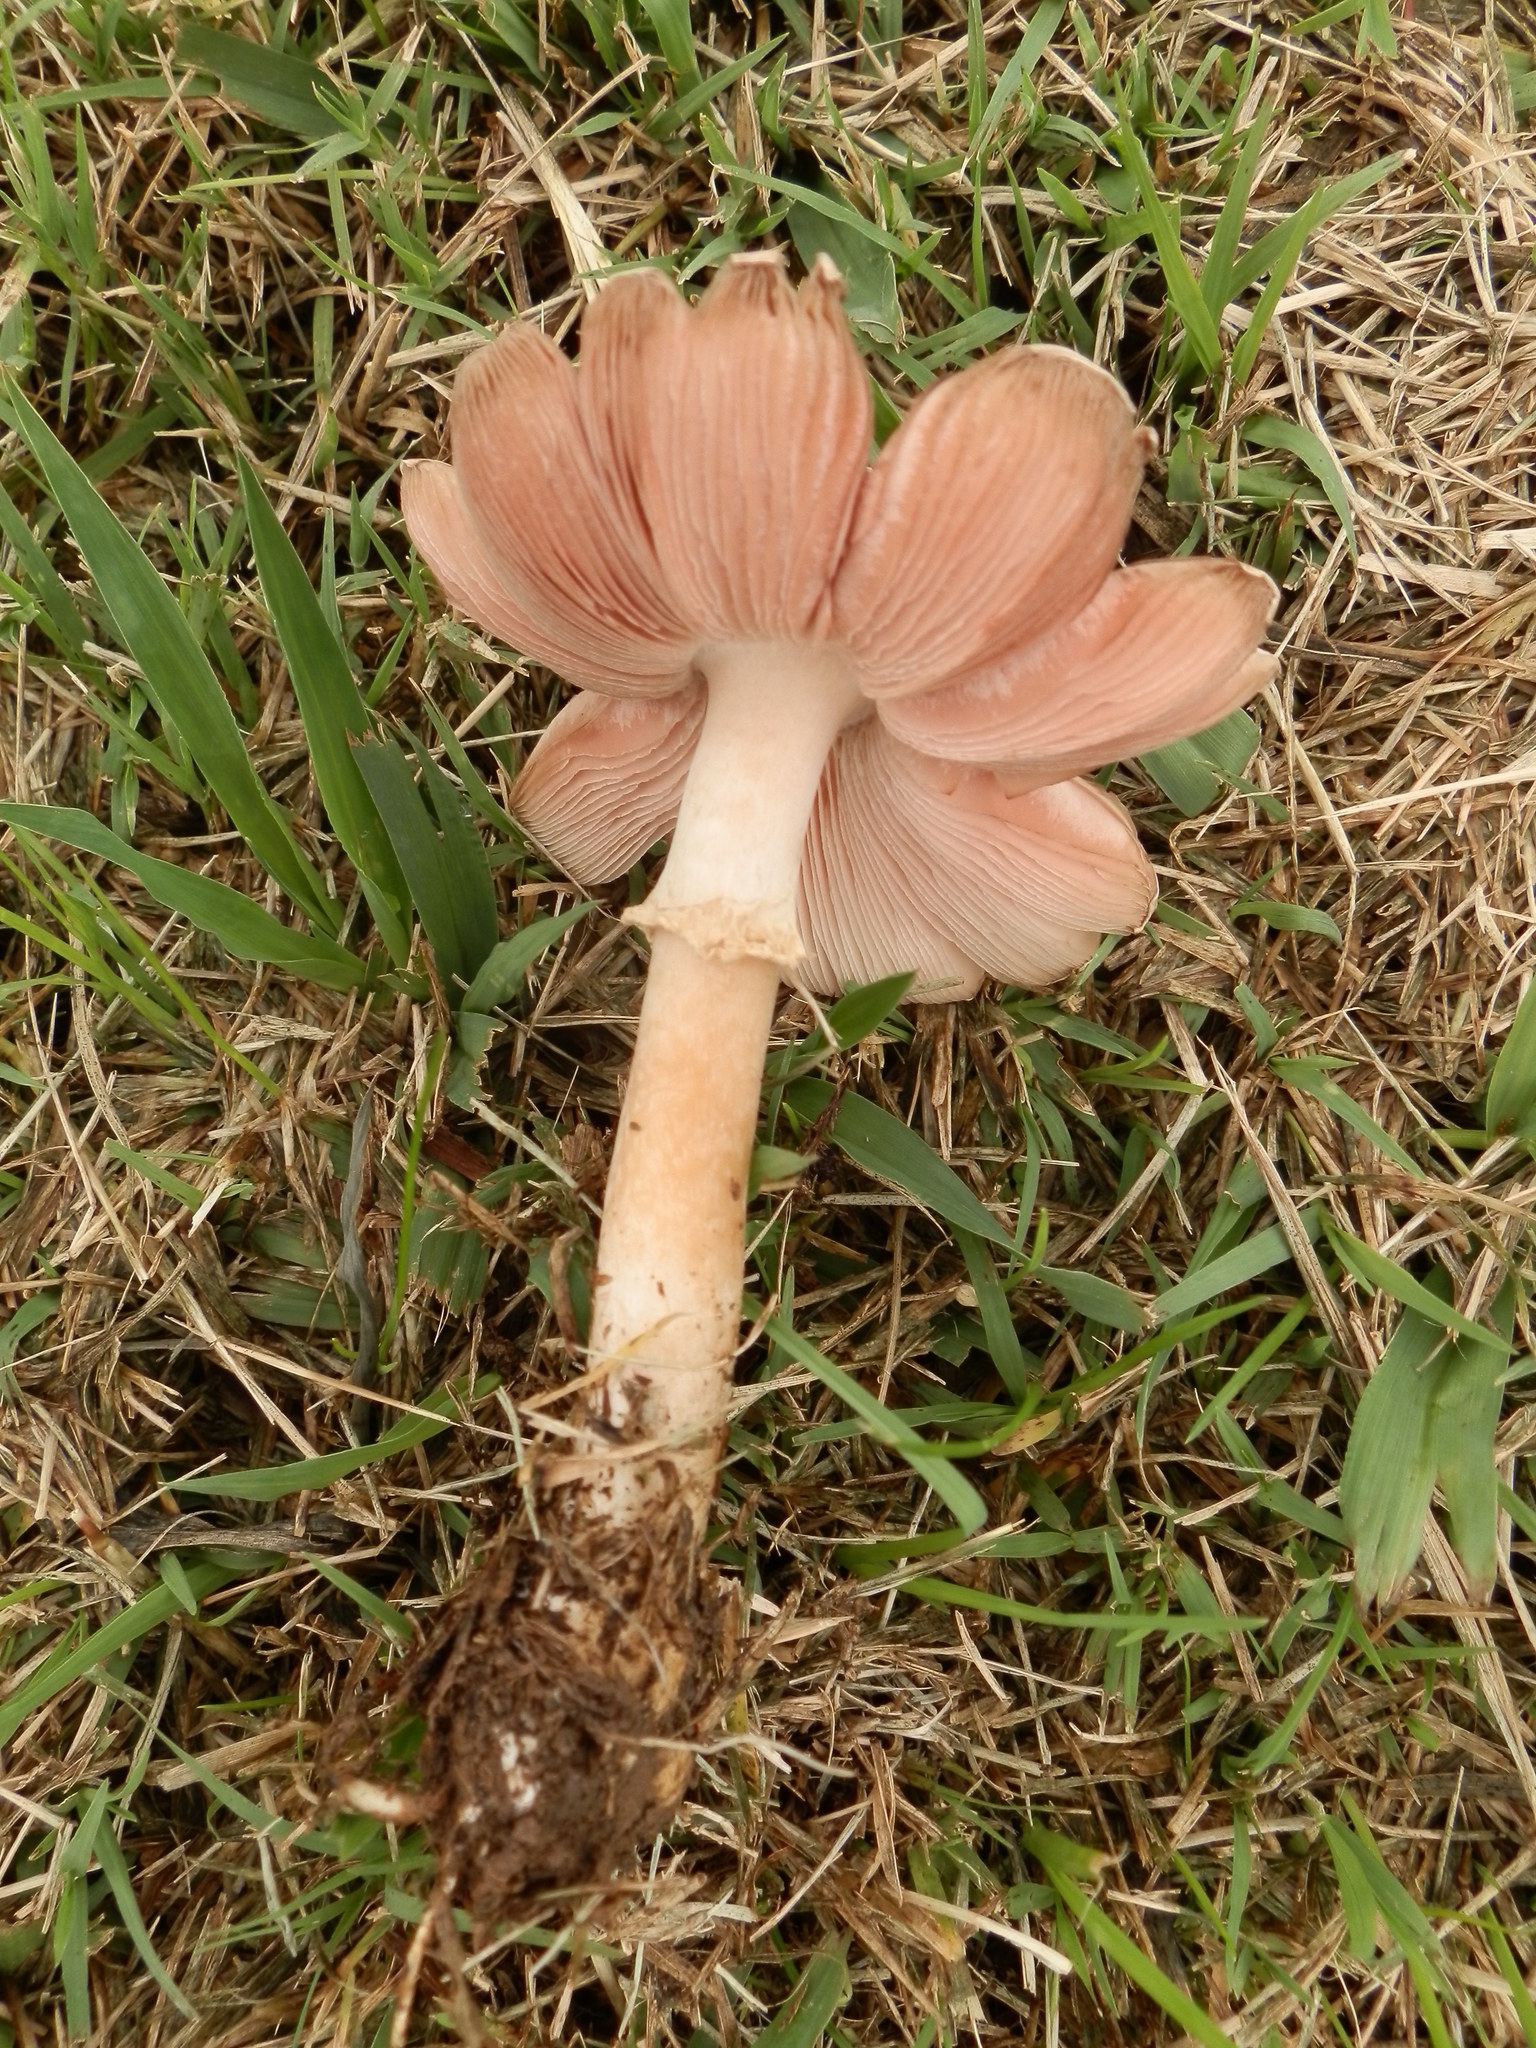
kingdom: Fungi
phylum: Basidiomycota
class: Agaricomycetes
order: Agaricales
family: Agaricaceae
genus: Leucoagaricus
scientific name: Leucoagaricus americanus
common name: Reddening lepiota
